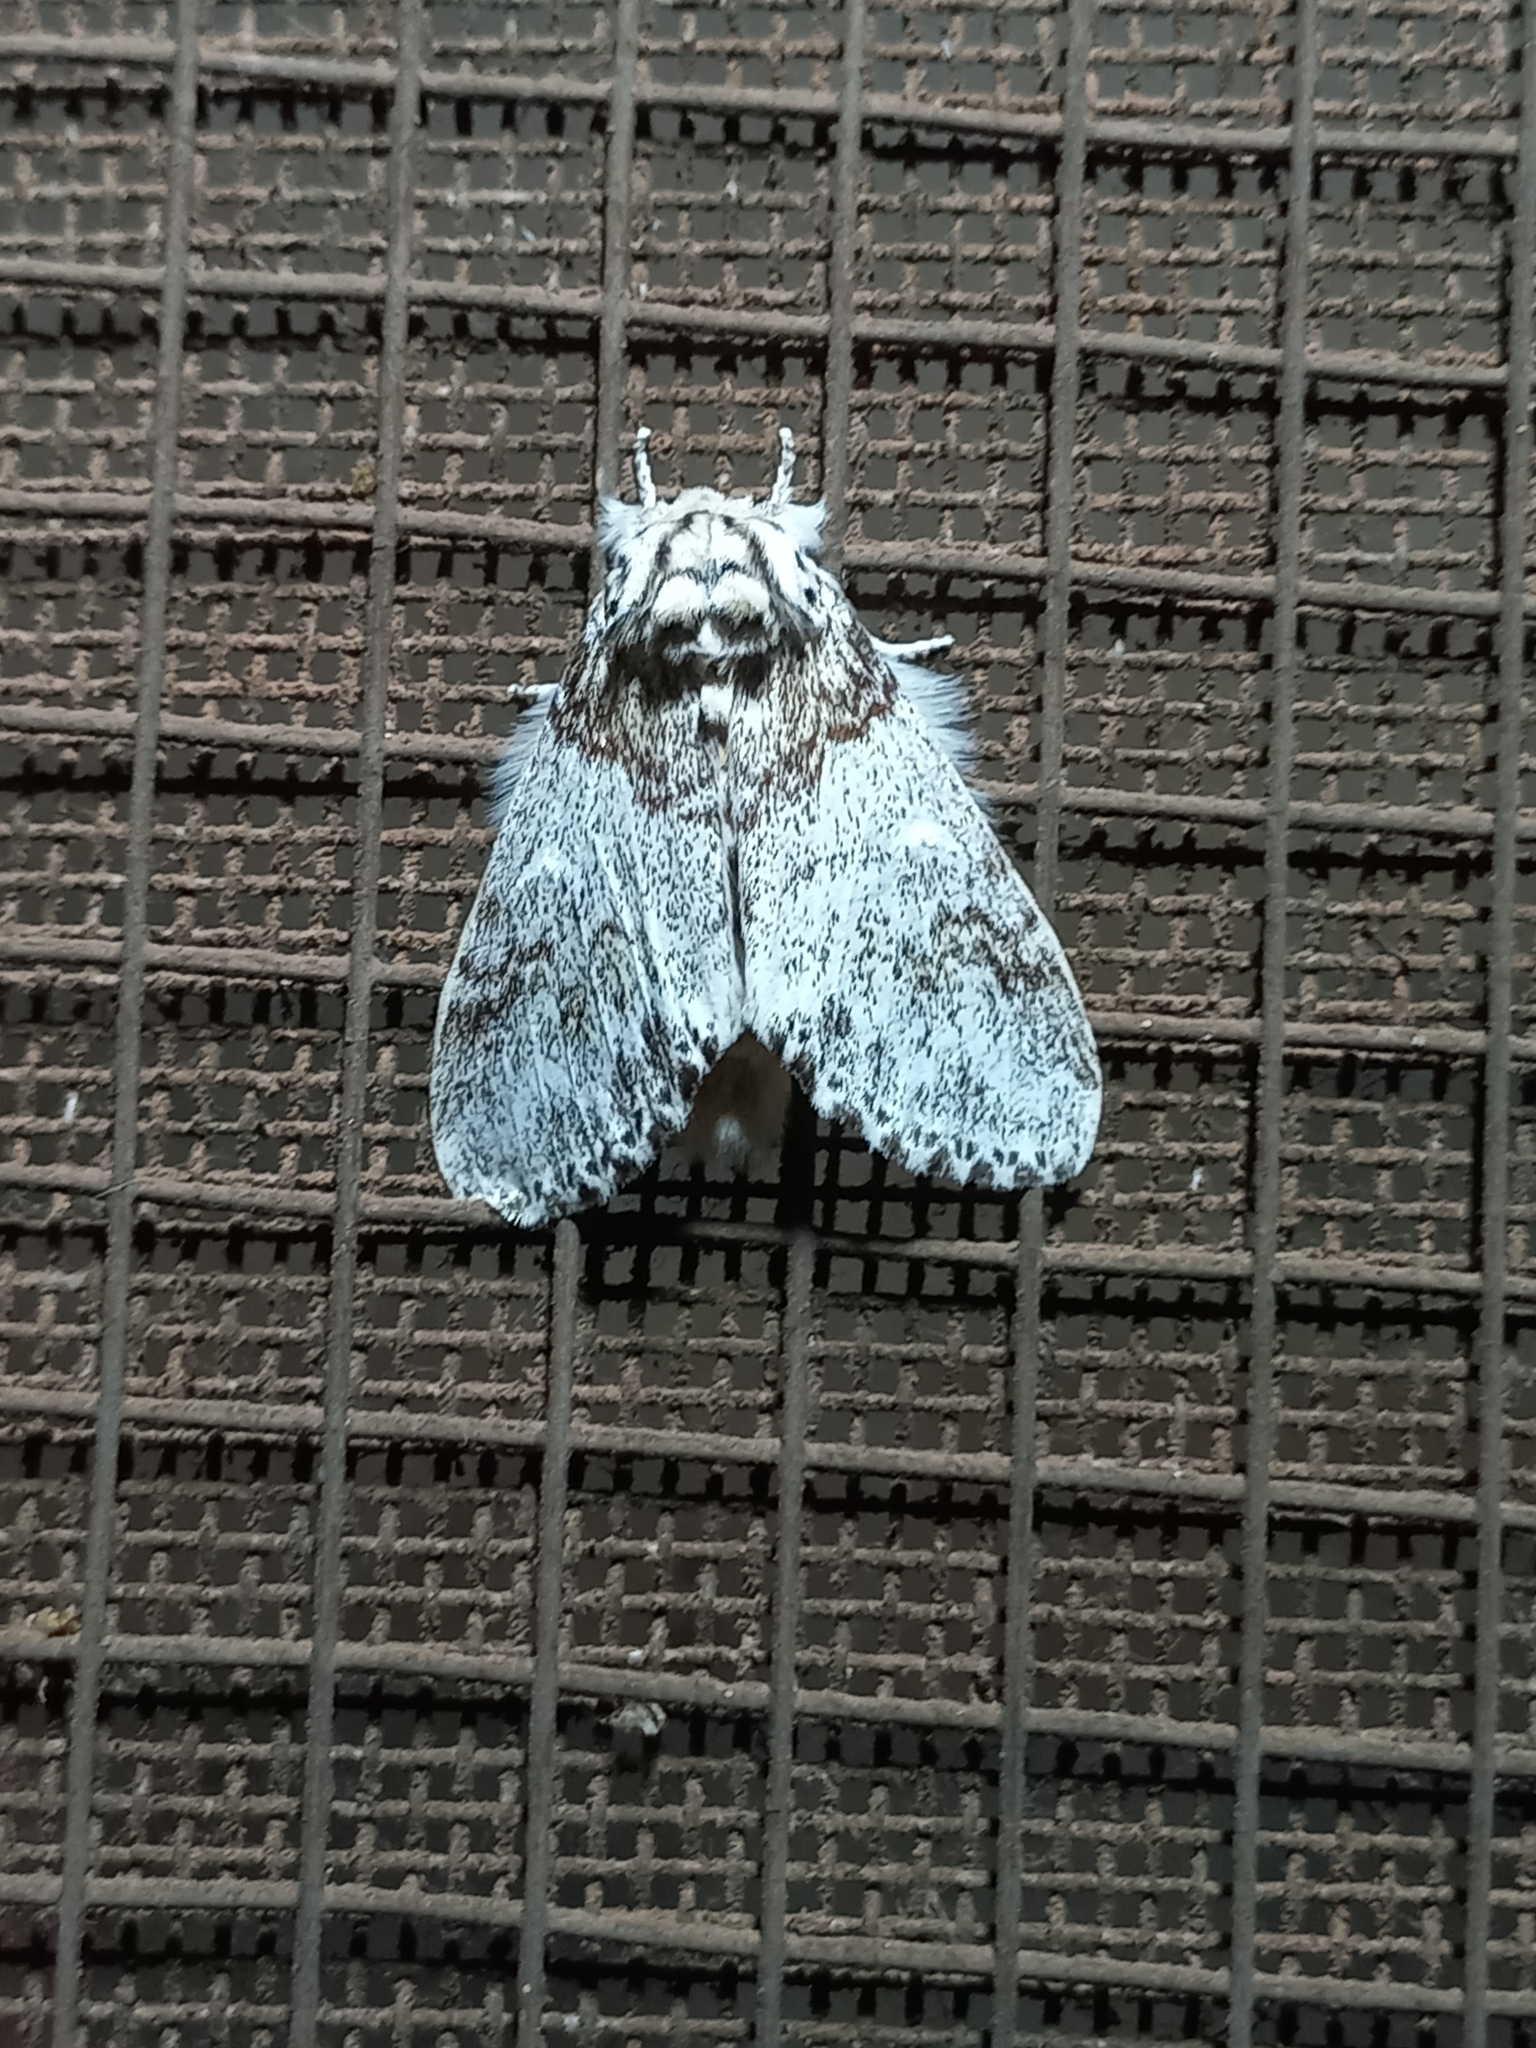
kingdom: Animalia
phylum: Arthropoda
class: Insecta
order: Lepidoptera
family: Notodontidae
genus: Boleza
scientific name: Boleza
